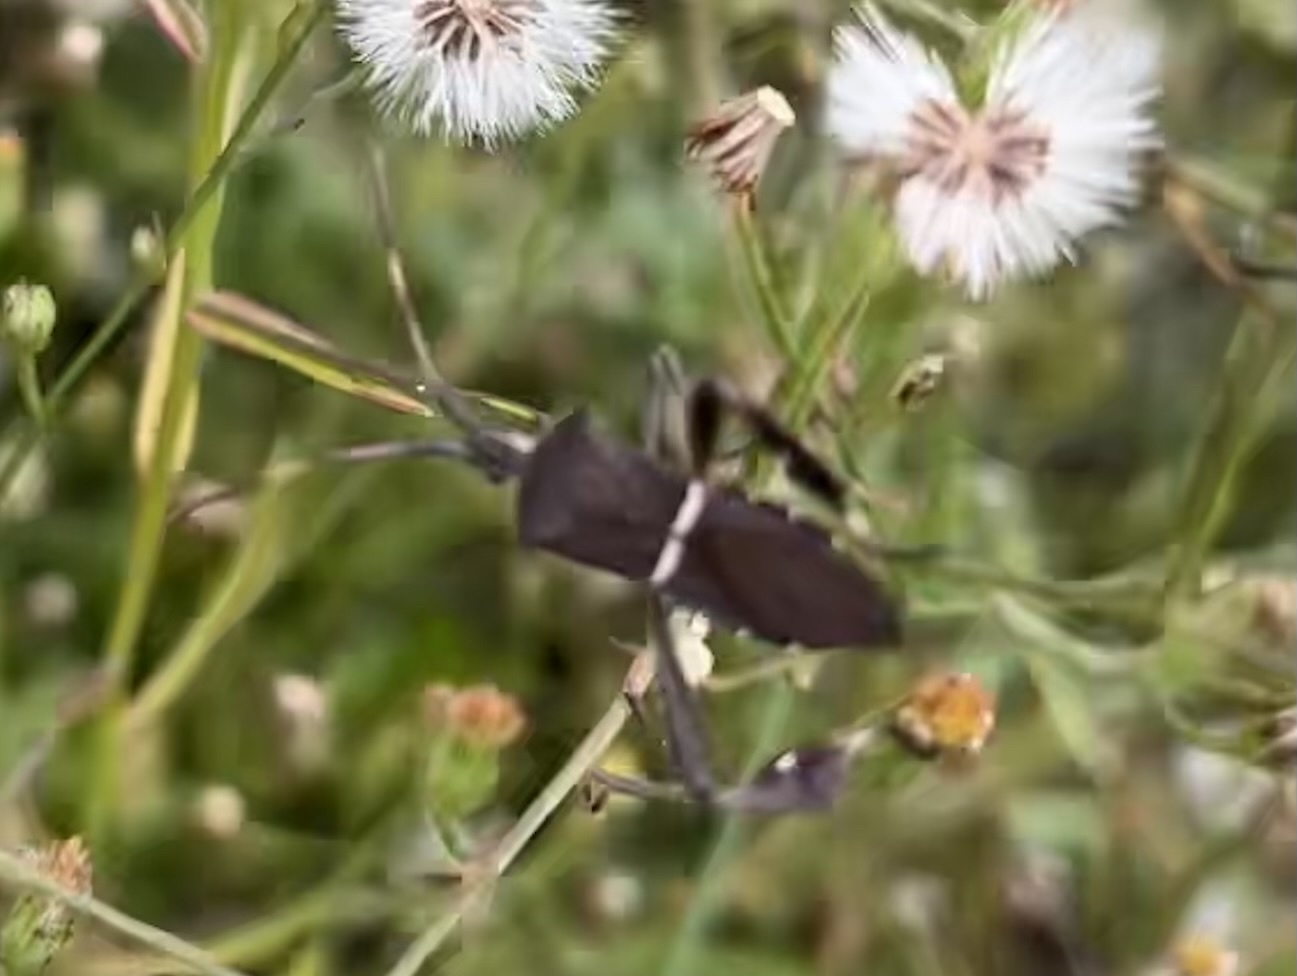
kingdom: Animalia
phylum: Arthropoda
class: Insecta
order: Hemiptera
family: Coreidae
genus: Leptoglossus
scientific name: Leptoglossus phyllopus
